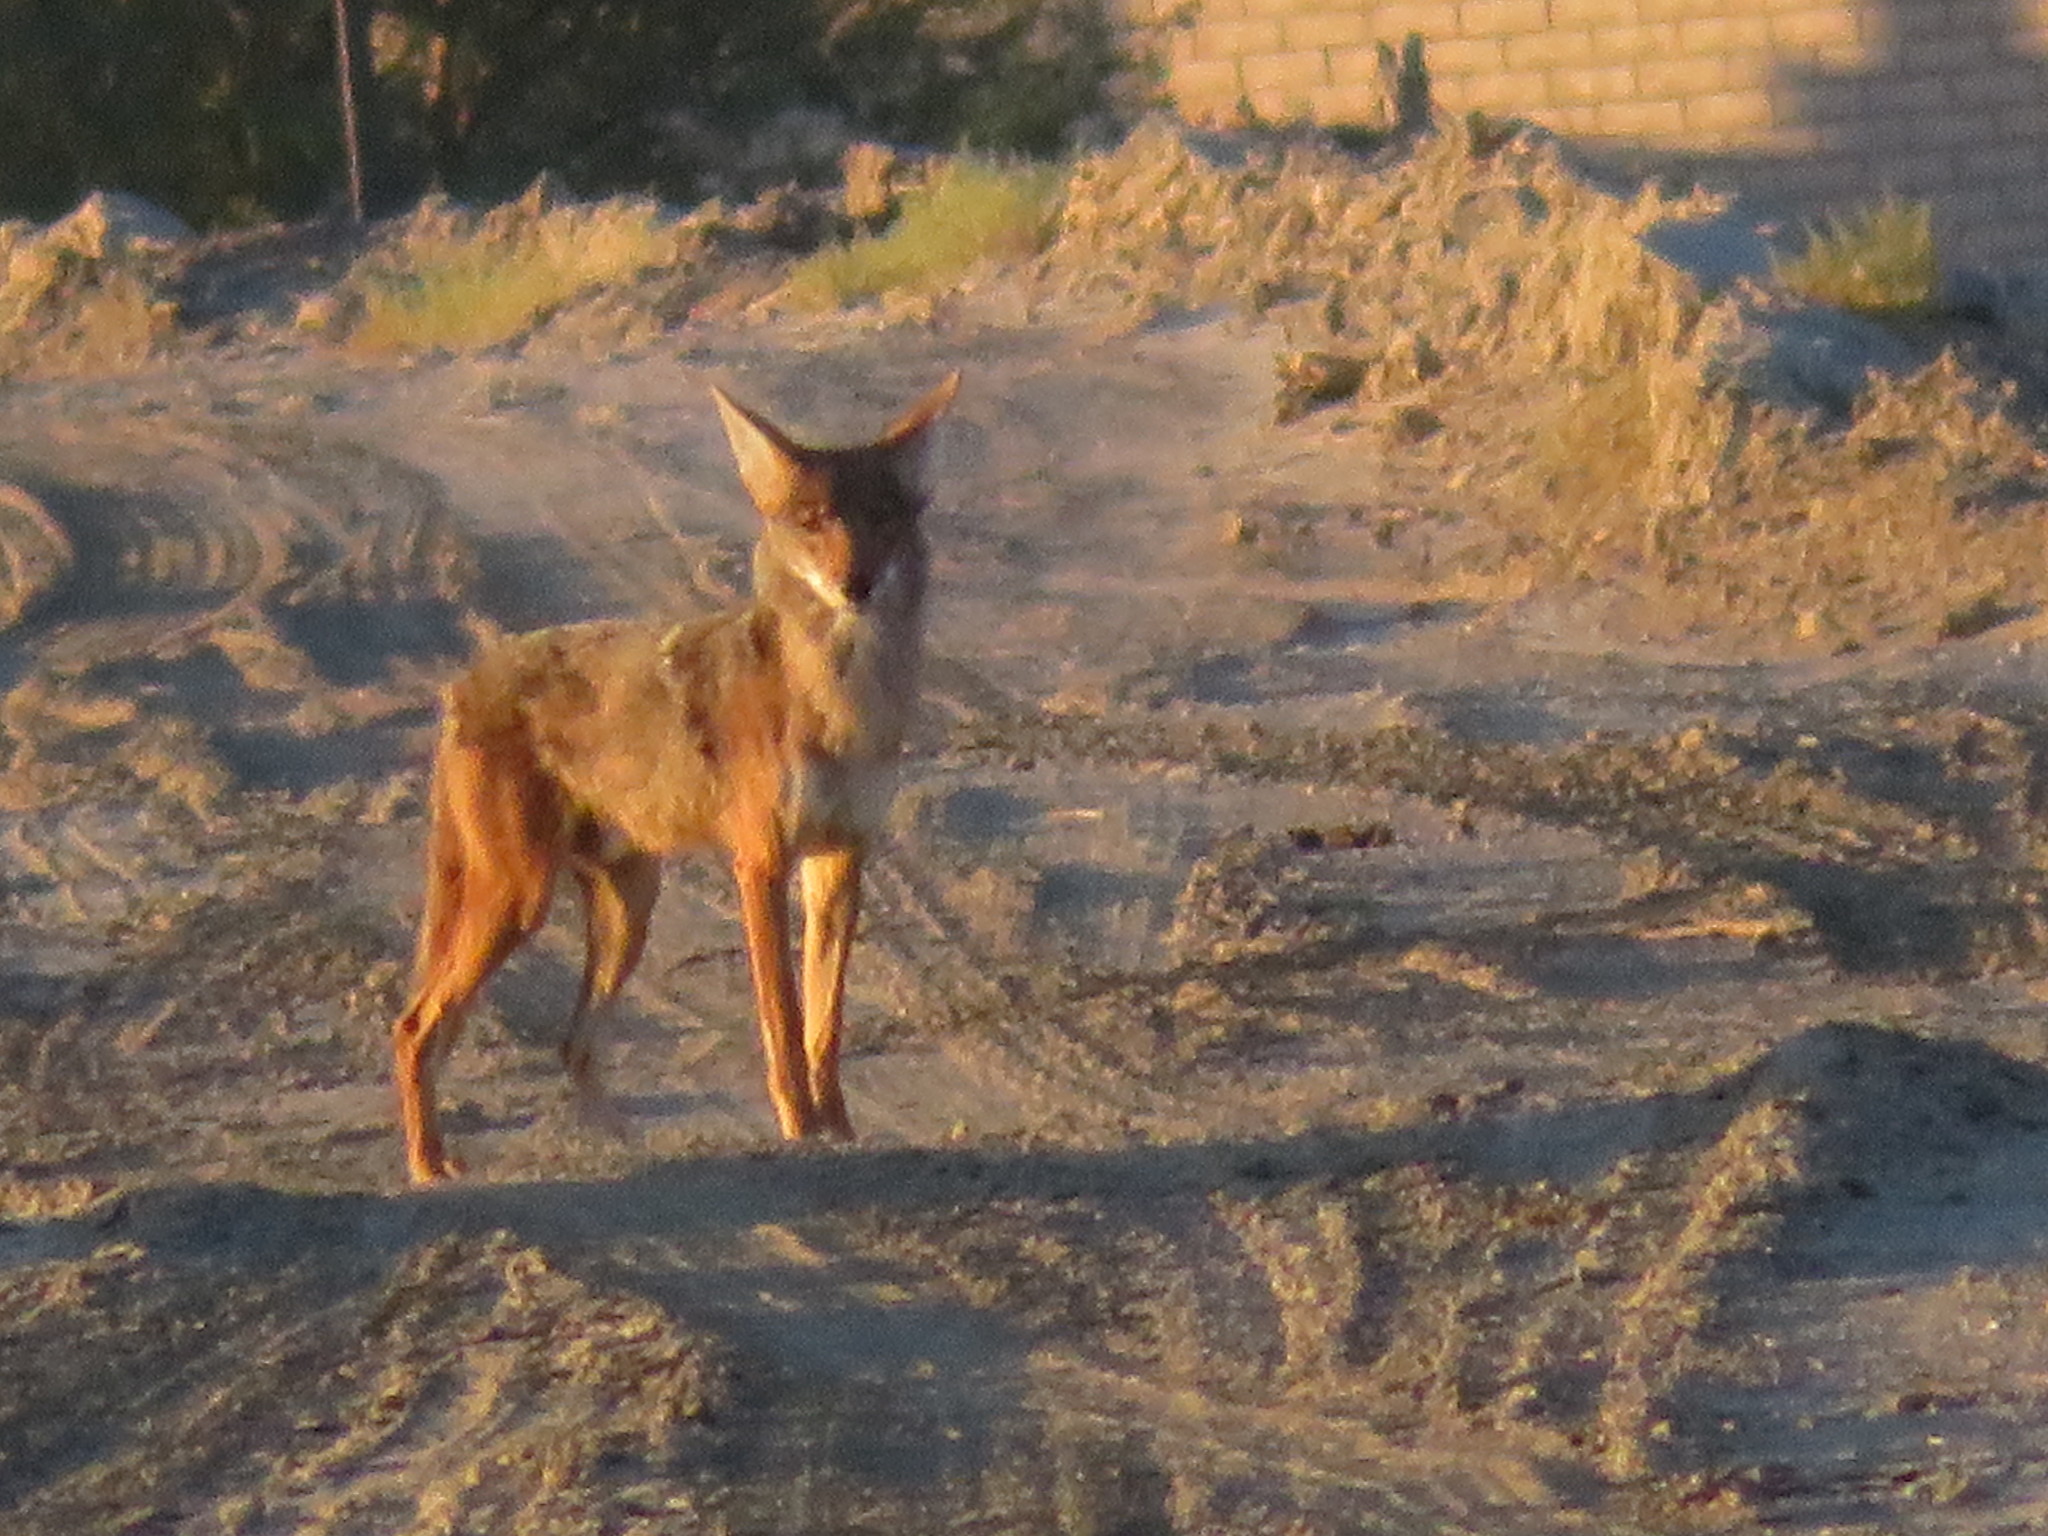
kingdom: Animalia
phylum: Chordata
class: Mammalia
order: Carnivora
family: Canidae
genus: Canis
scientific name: Canis latrans
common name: Coyote
